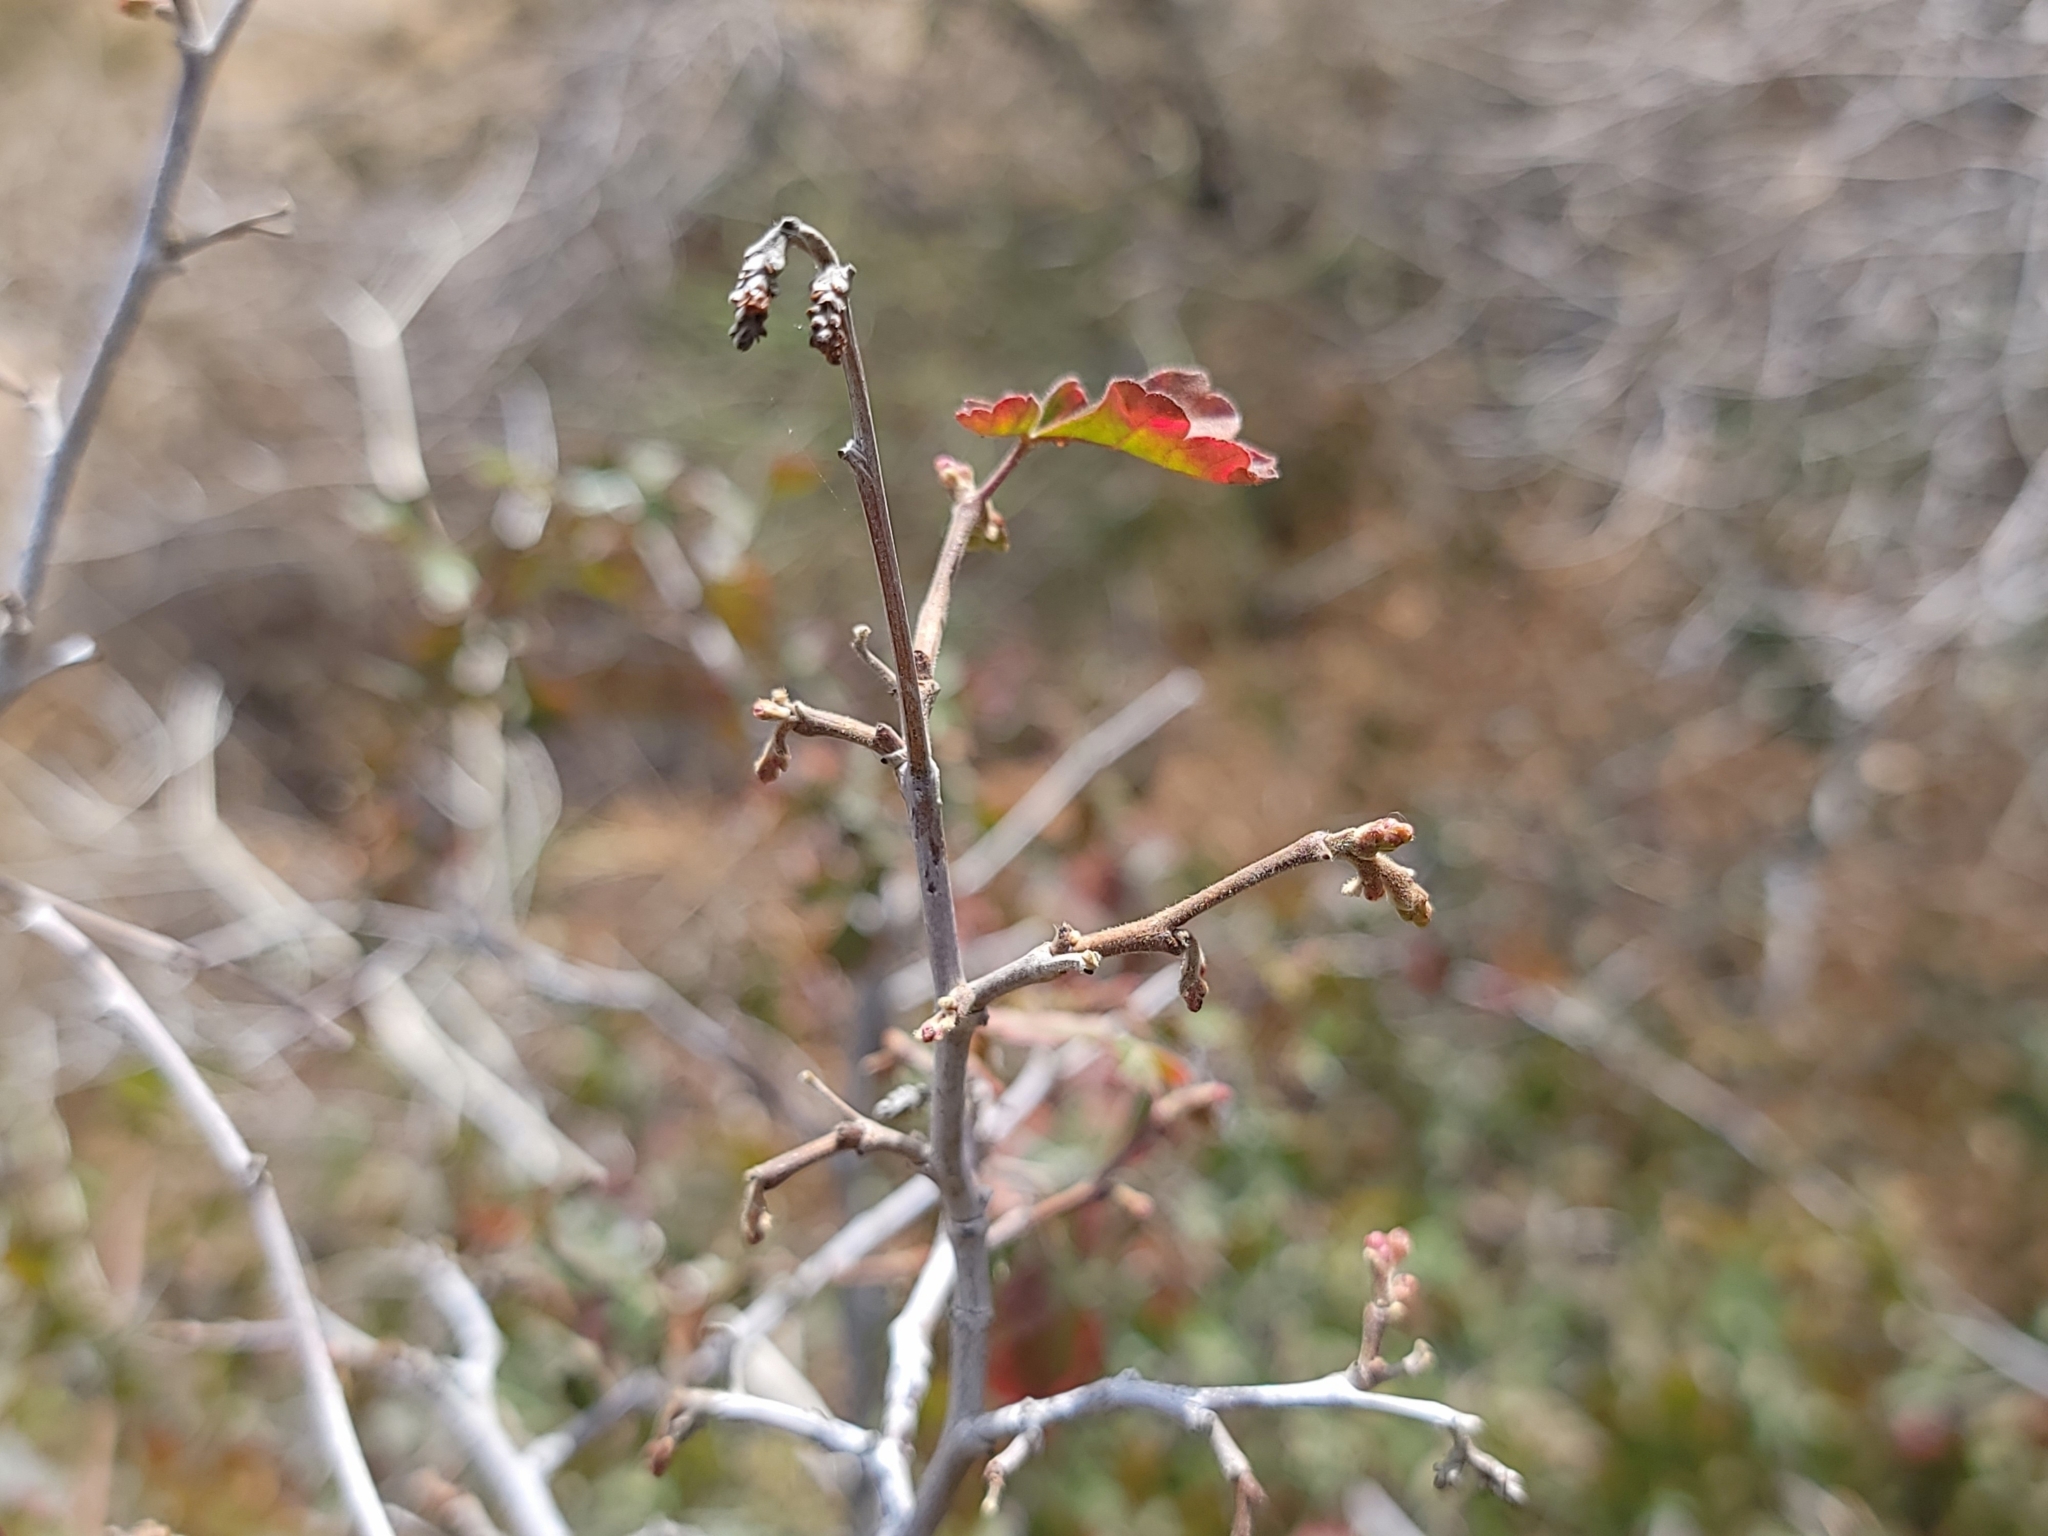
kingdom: Plantae
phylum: Tracheophyta
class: Magnoliopsida
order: Sapindales
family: Anacardiaceae
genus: Rhus
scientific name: Rhus aromatica
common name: Aromatic sumac
